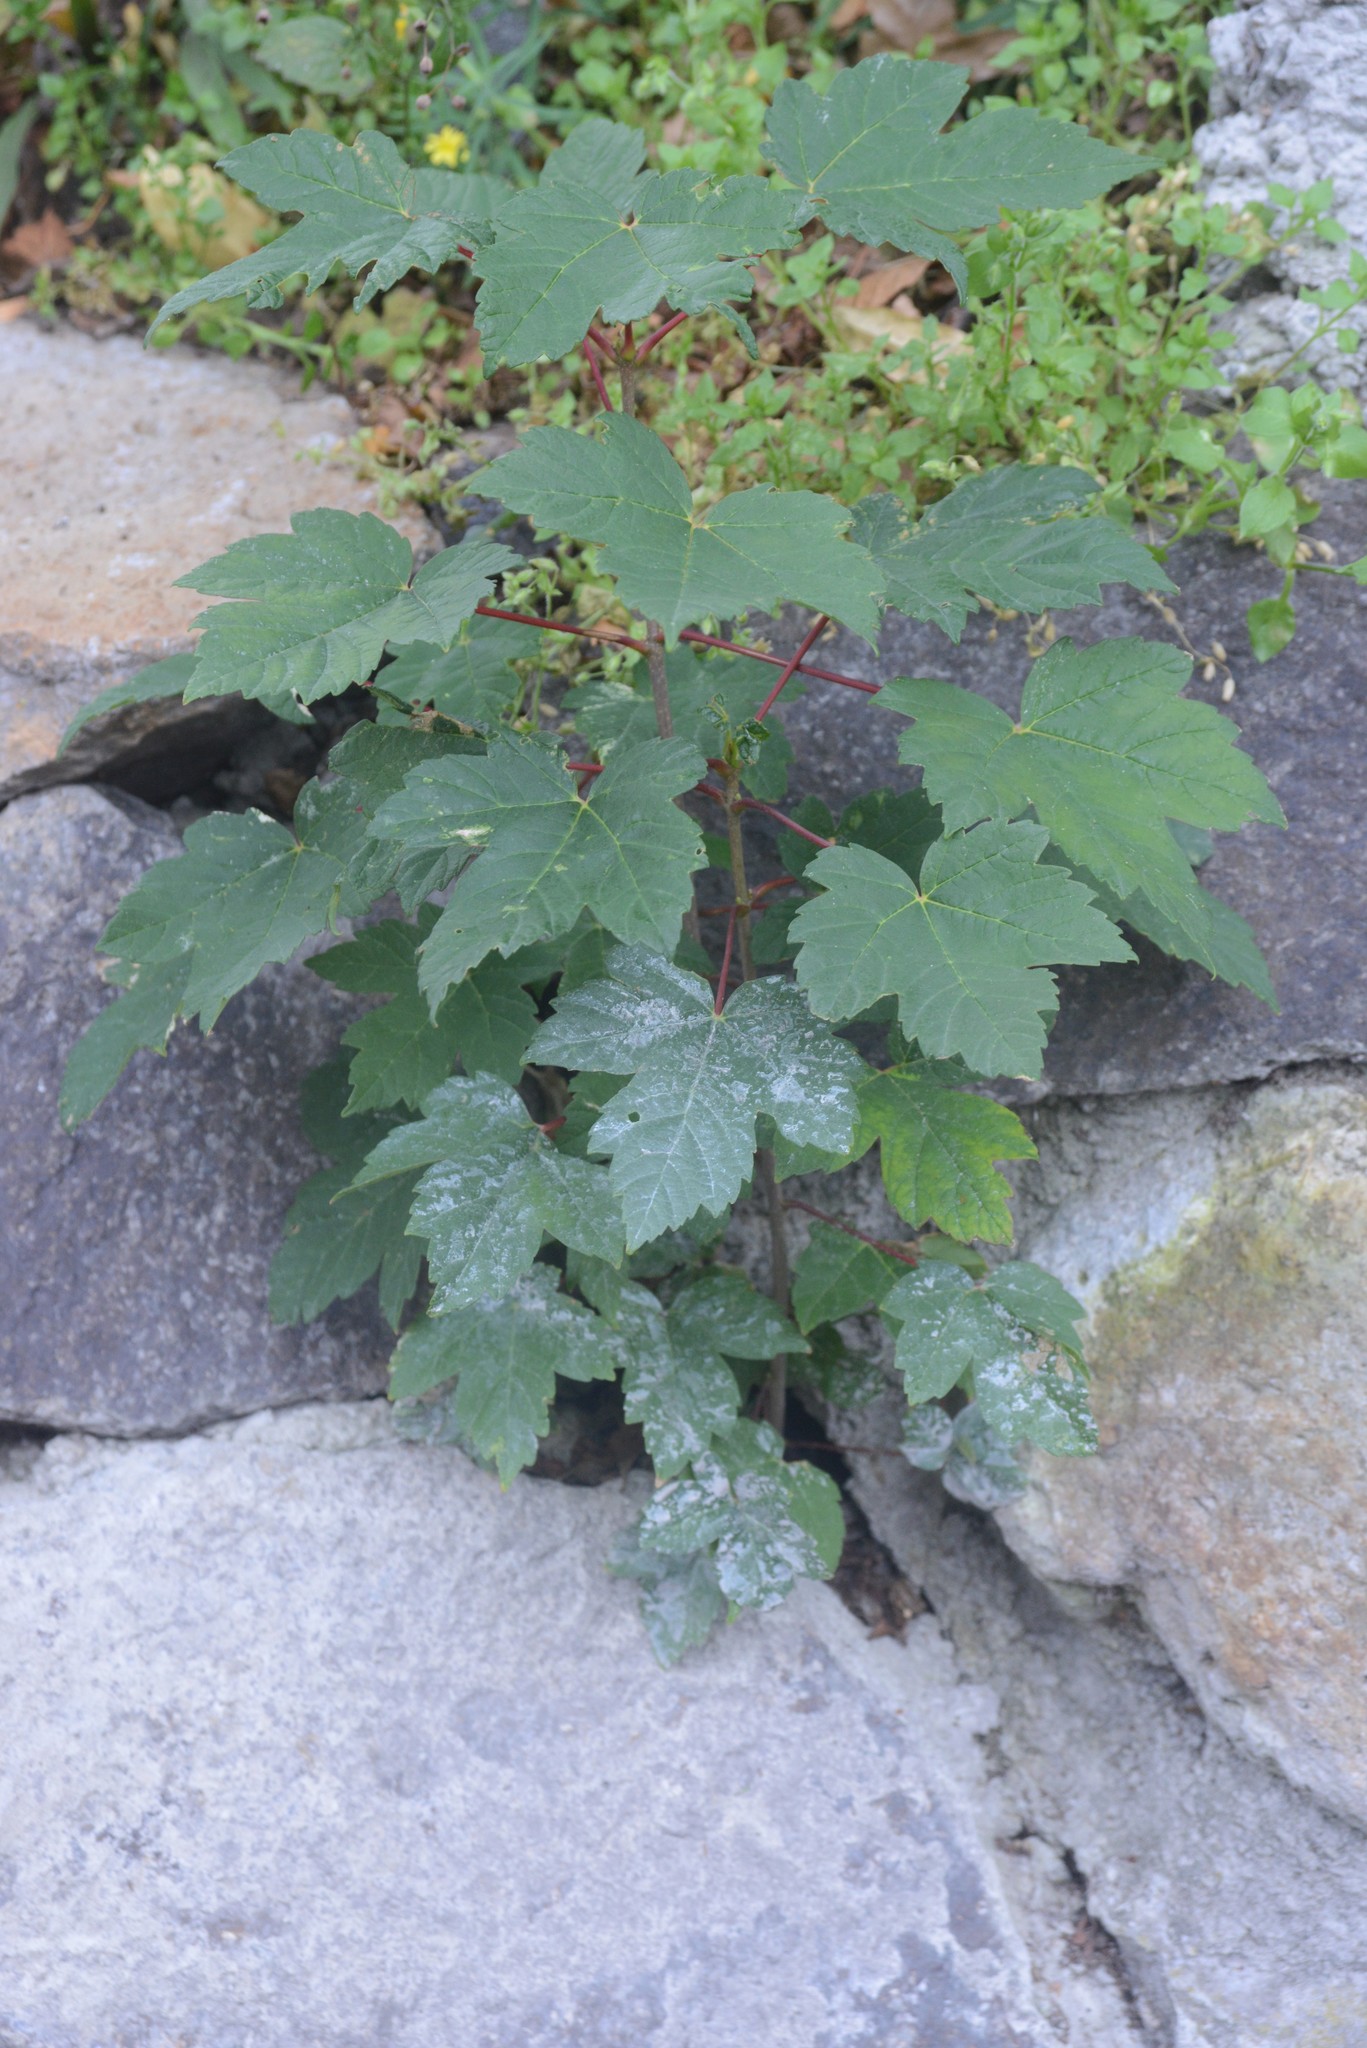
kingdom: Plantae
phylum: Tracheophyta
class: Magnoliopsida
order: Sapindales
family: Sapindaceae
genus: Acer
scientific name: Acer pseudoplatanus
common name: Sycamore
